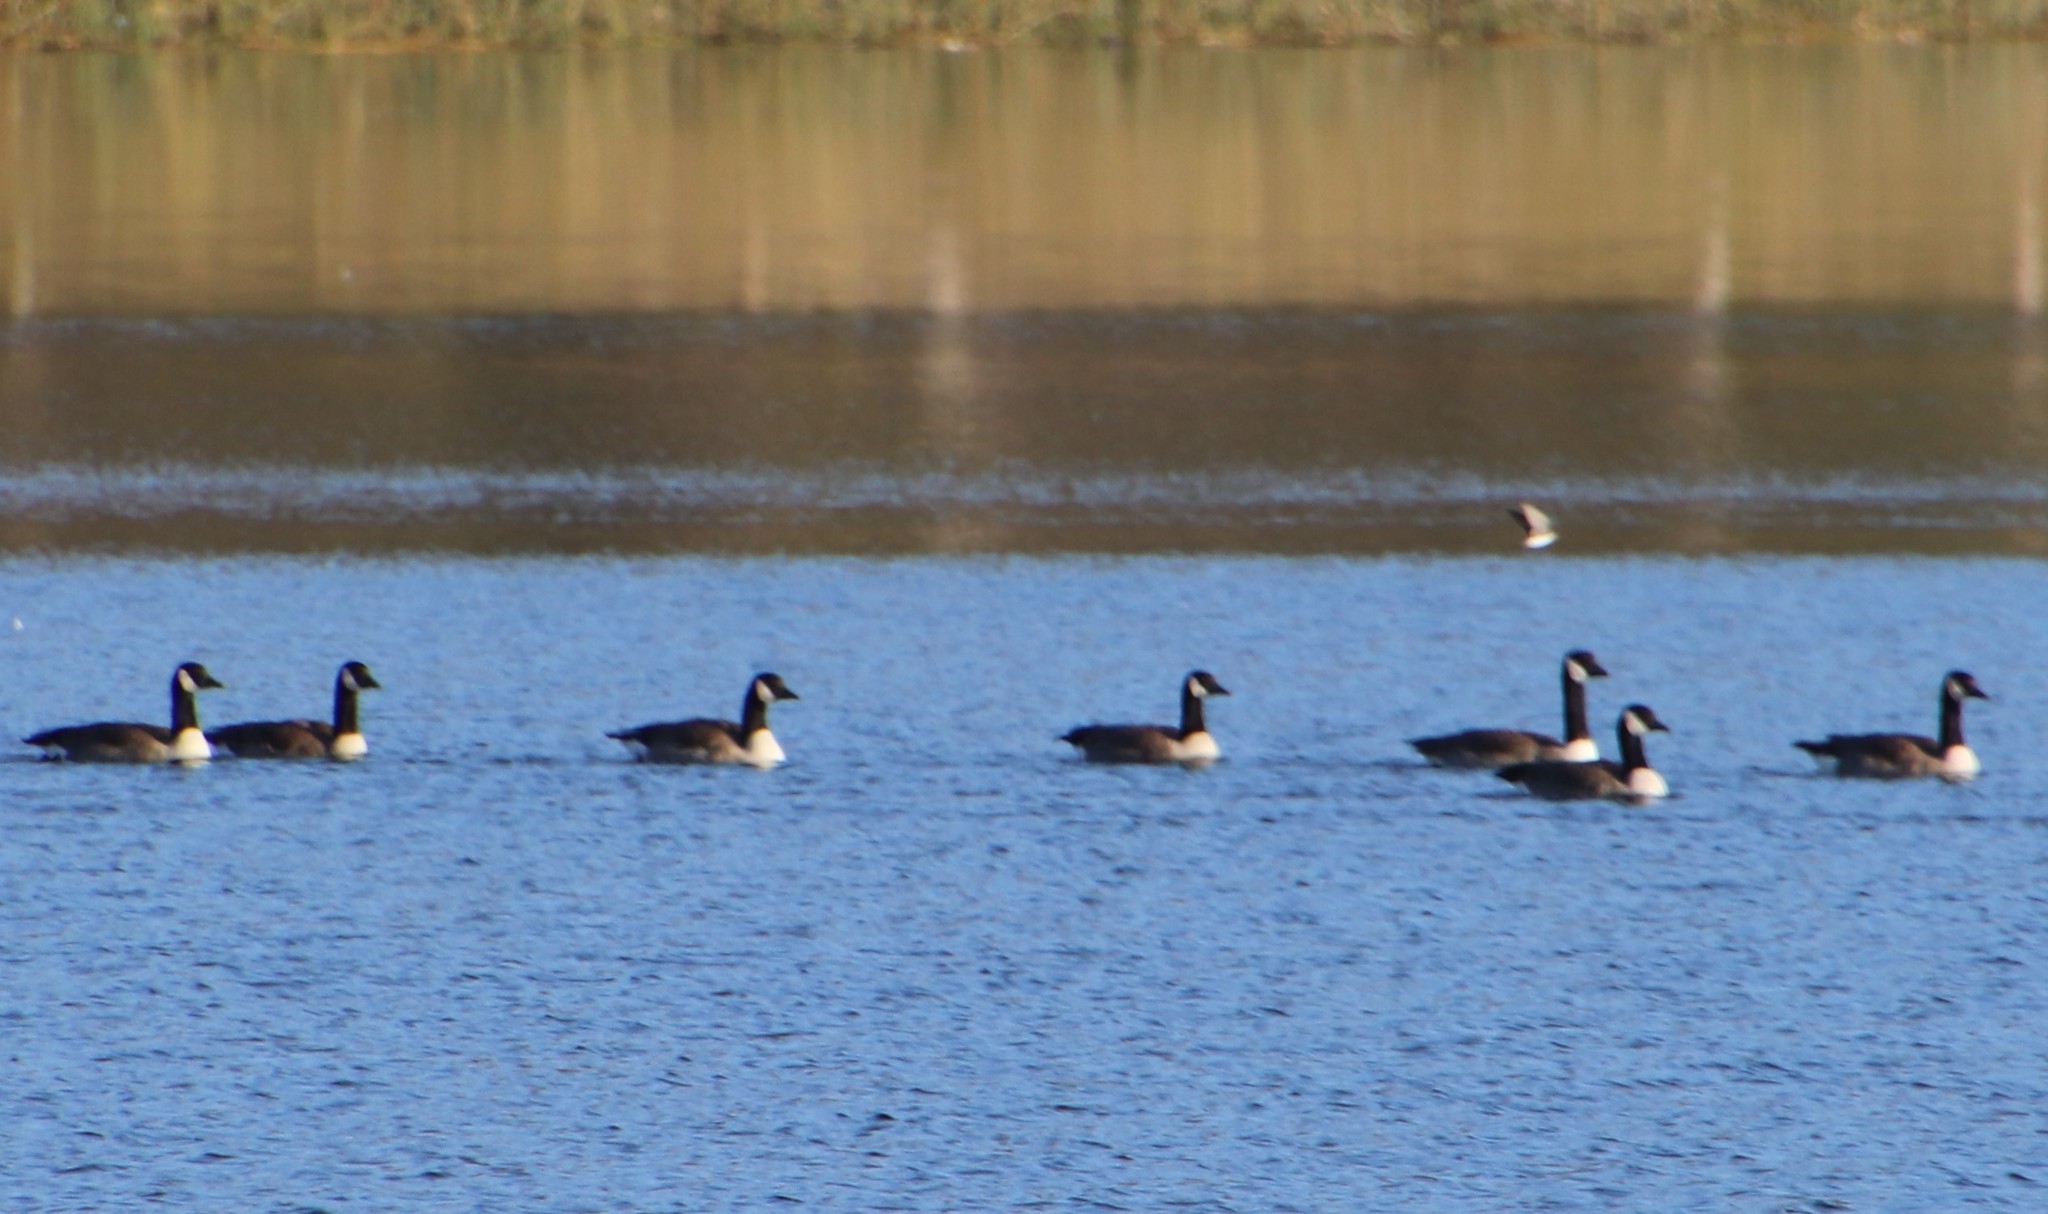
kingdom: Animalia
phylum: Chordata
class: Aves
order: Anseriformes
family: Anatidae
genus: Branta
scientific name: Branta canadensis
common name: Canada goose
